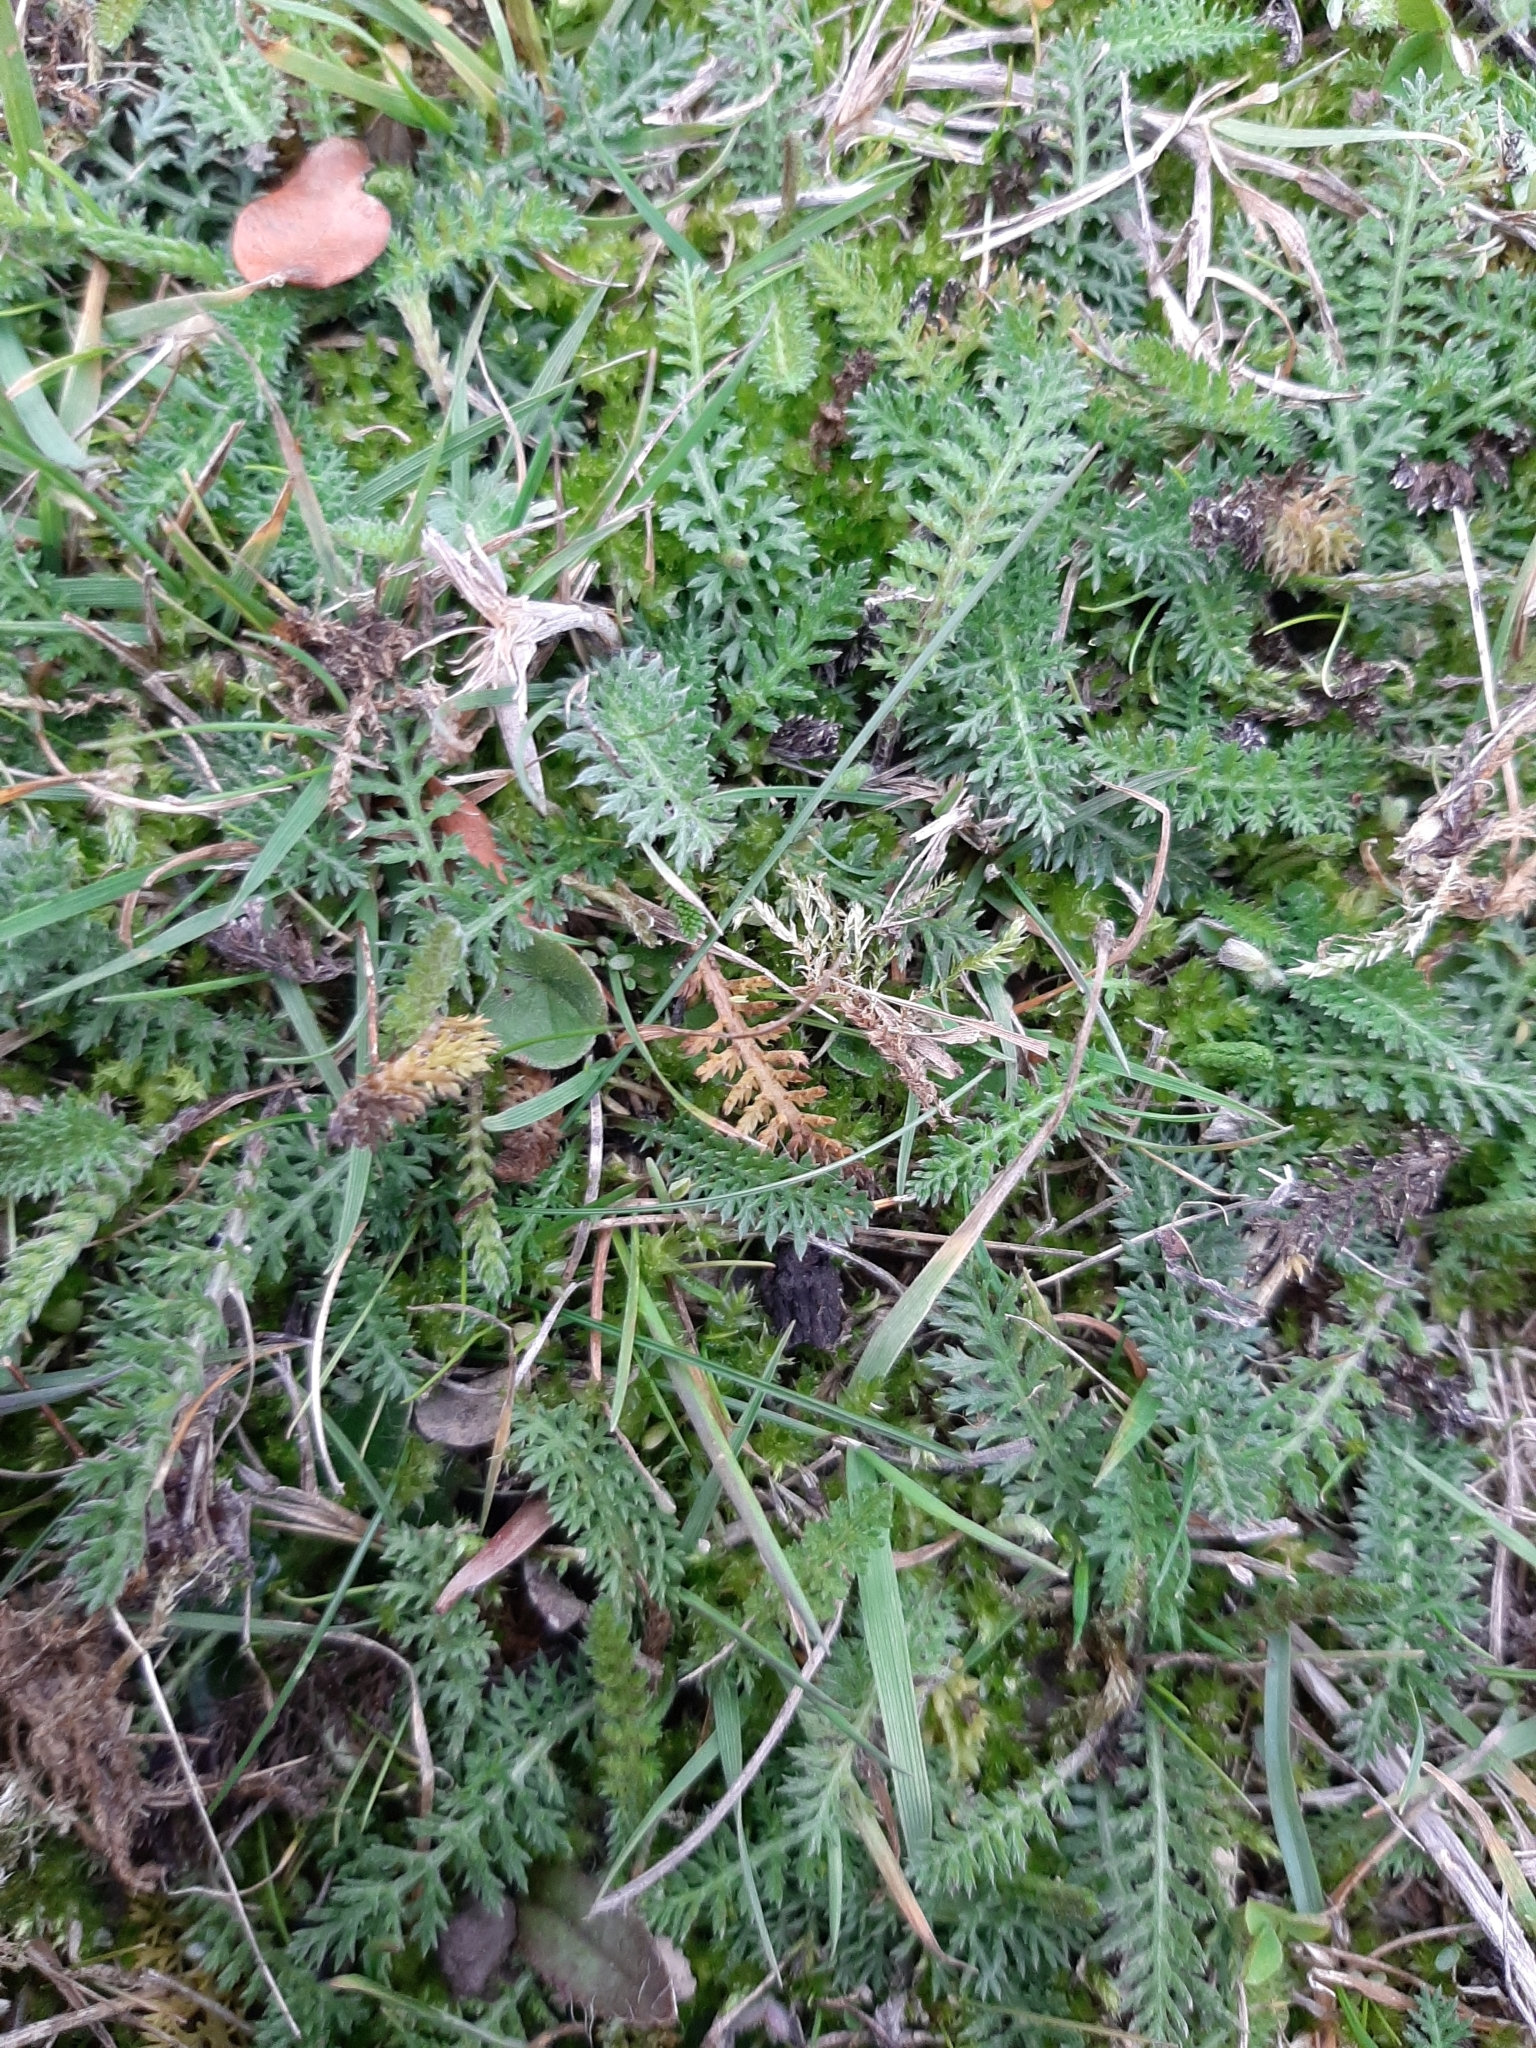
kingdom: Plantae
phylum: Tracheophyta
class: Magnoliopsida
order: Asterales
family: Asteraceae
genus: Achillea
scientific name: Achillea millefolium
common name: Yarrow
